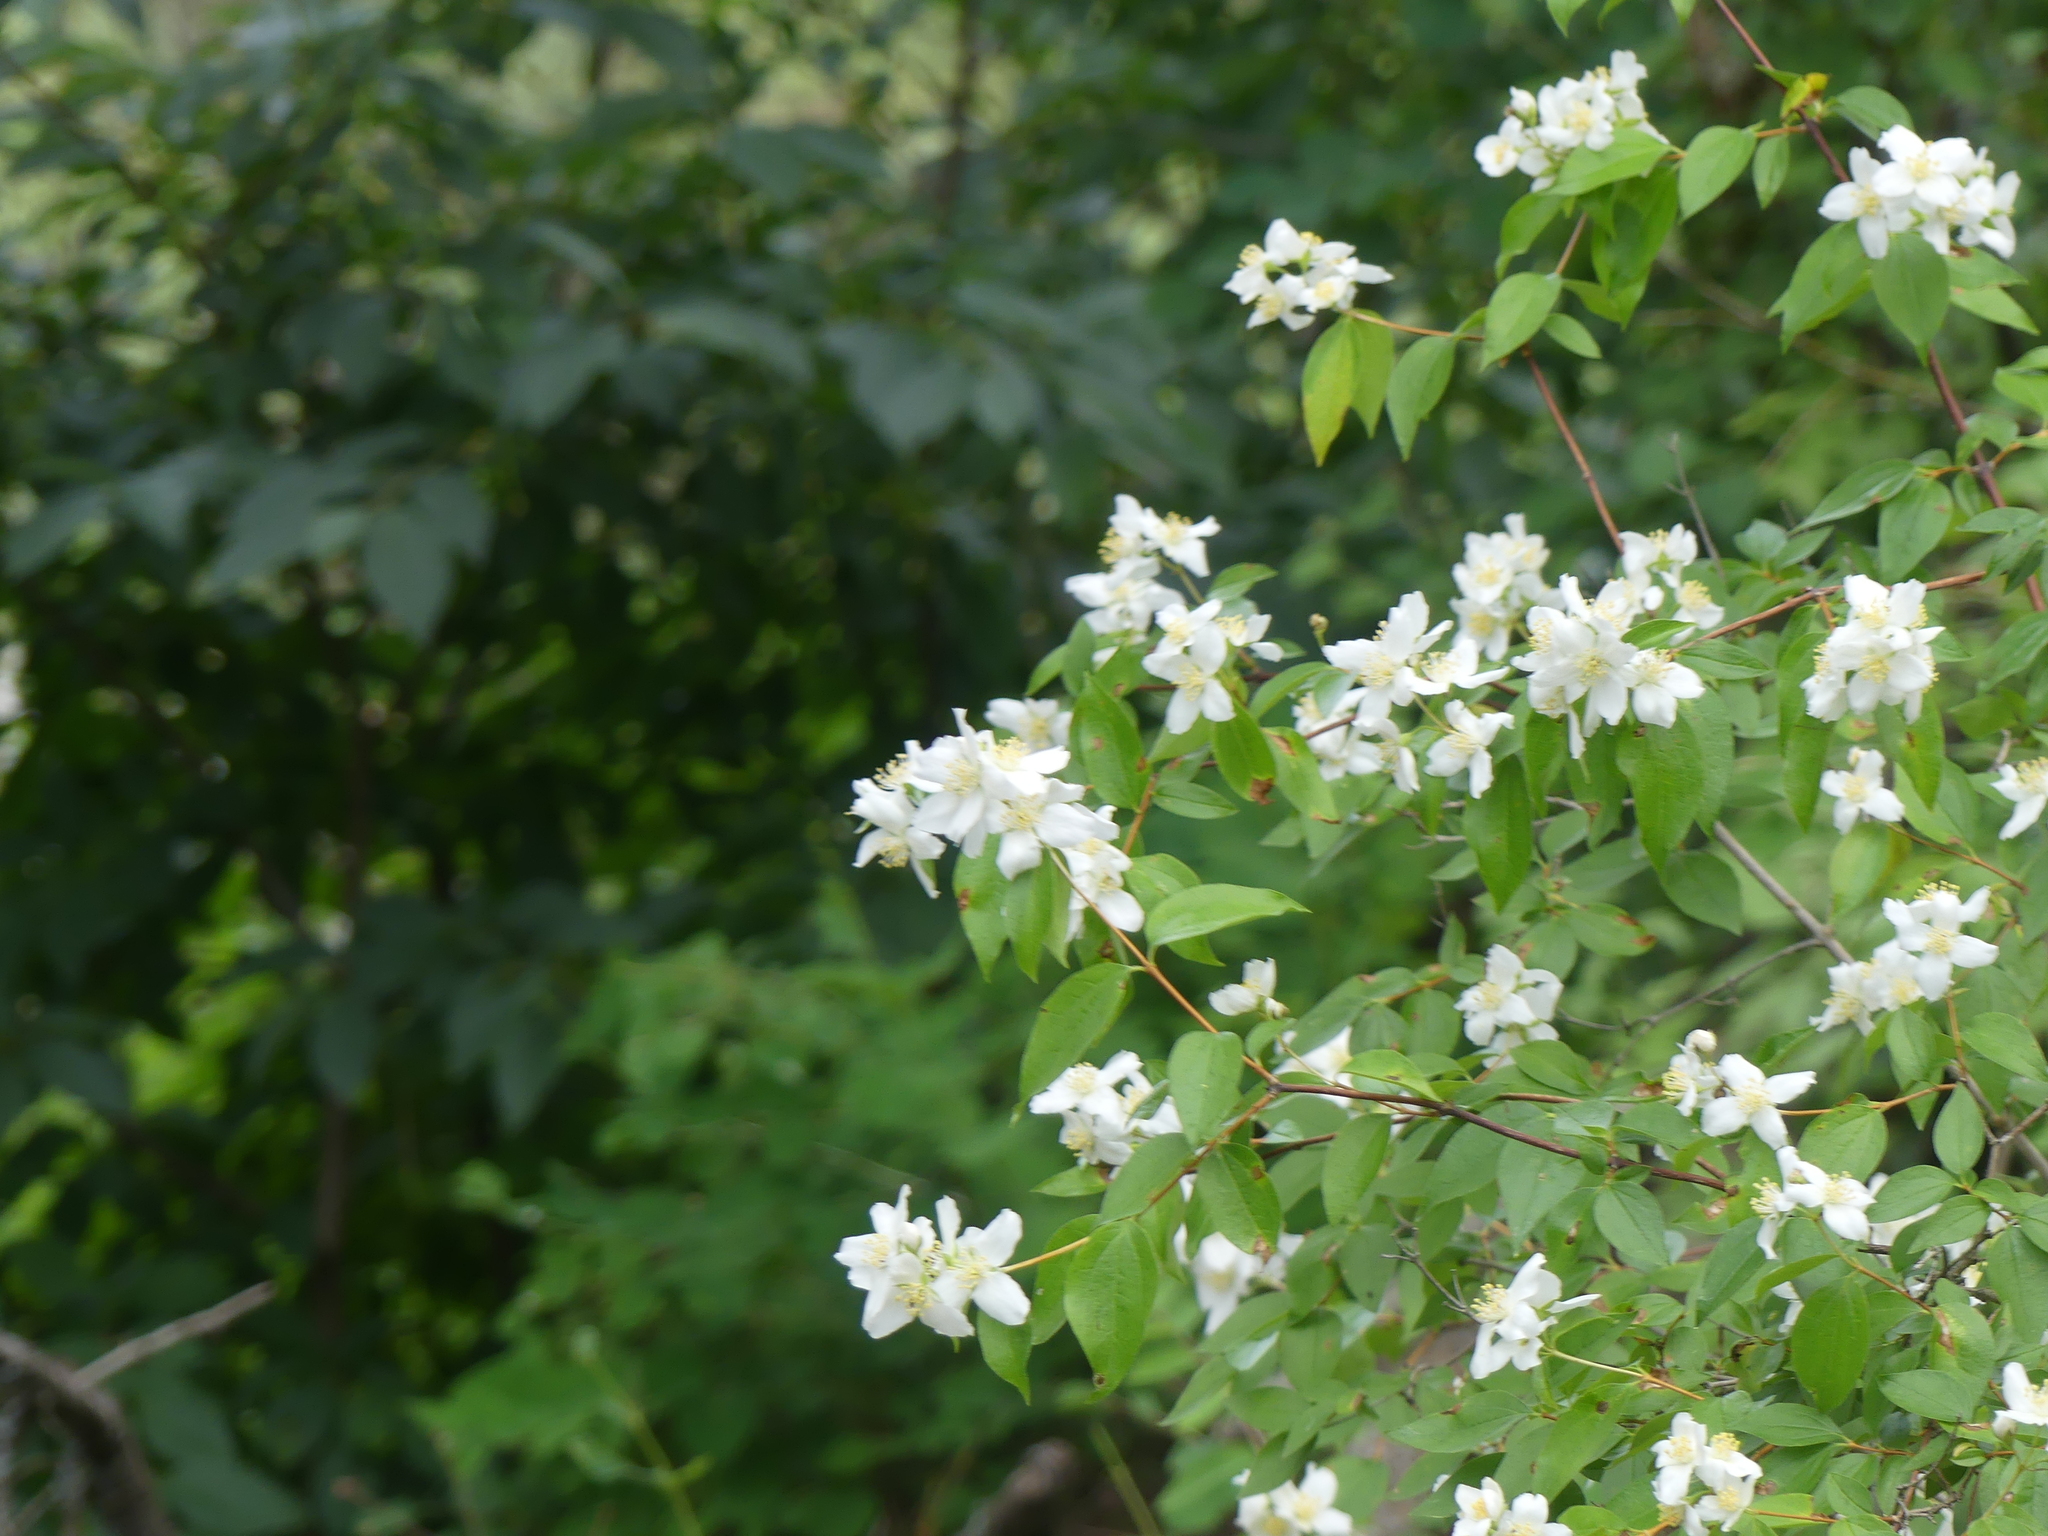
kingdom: Plantae
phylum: Tracheophyta
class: Magnoliopsida
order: Cornales
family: Hydrangeaceae
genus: Philadelphus
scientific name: Philadelphus lewisii
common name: Lewis's mock orange
